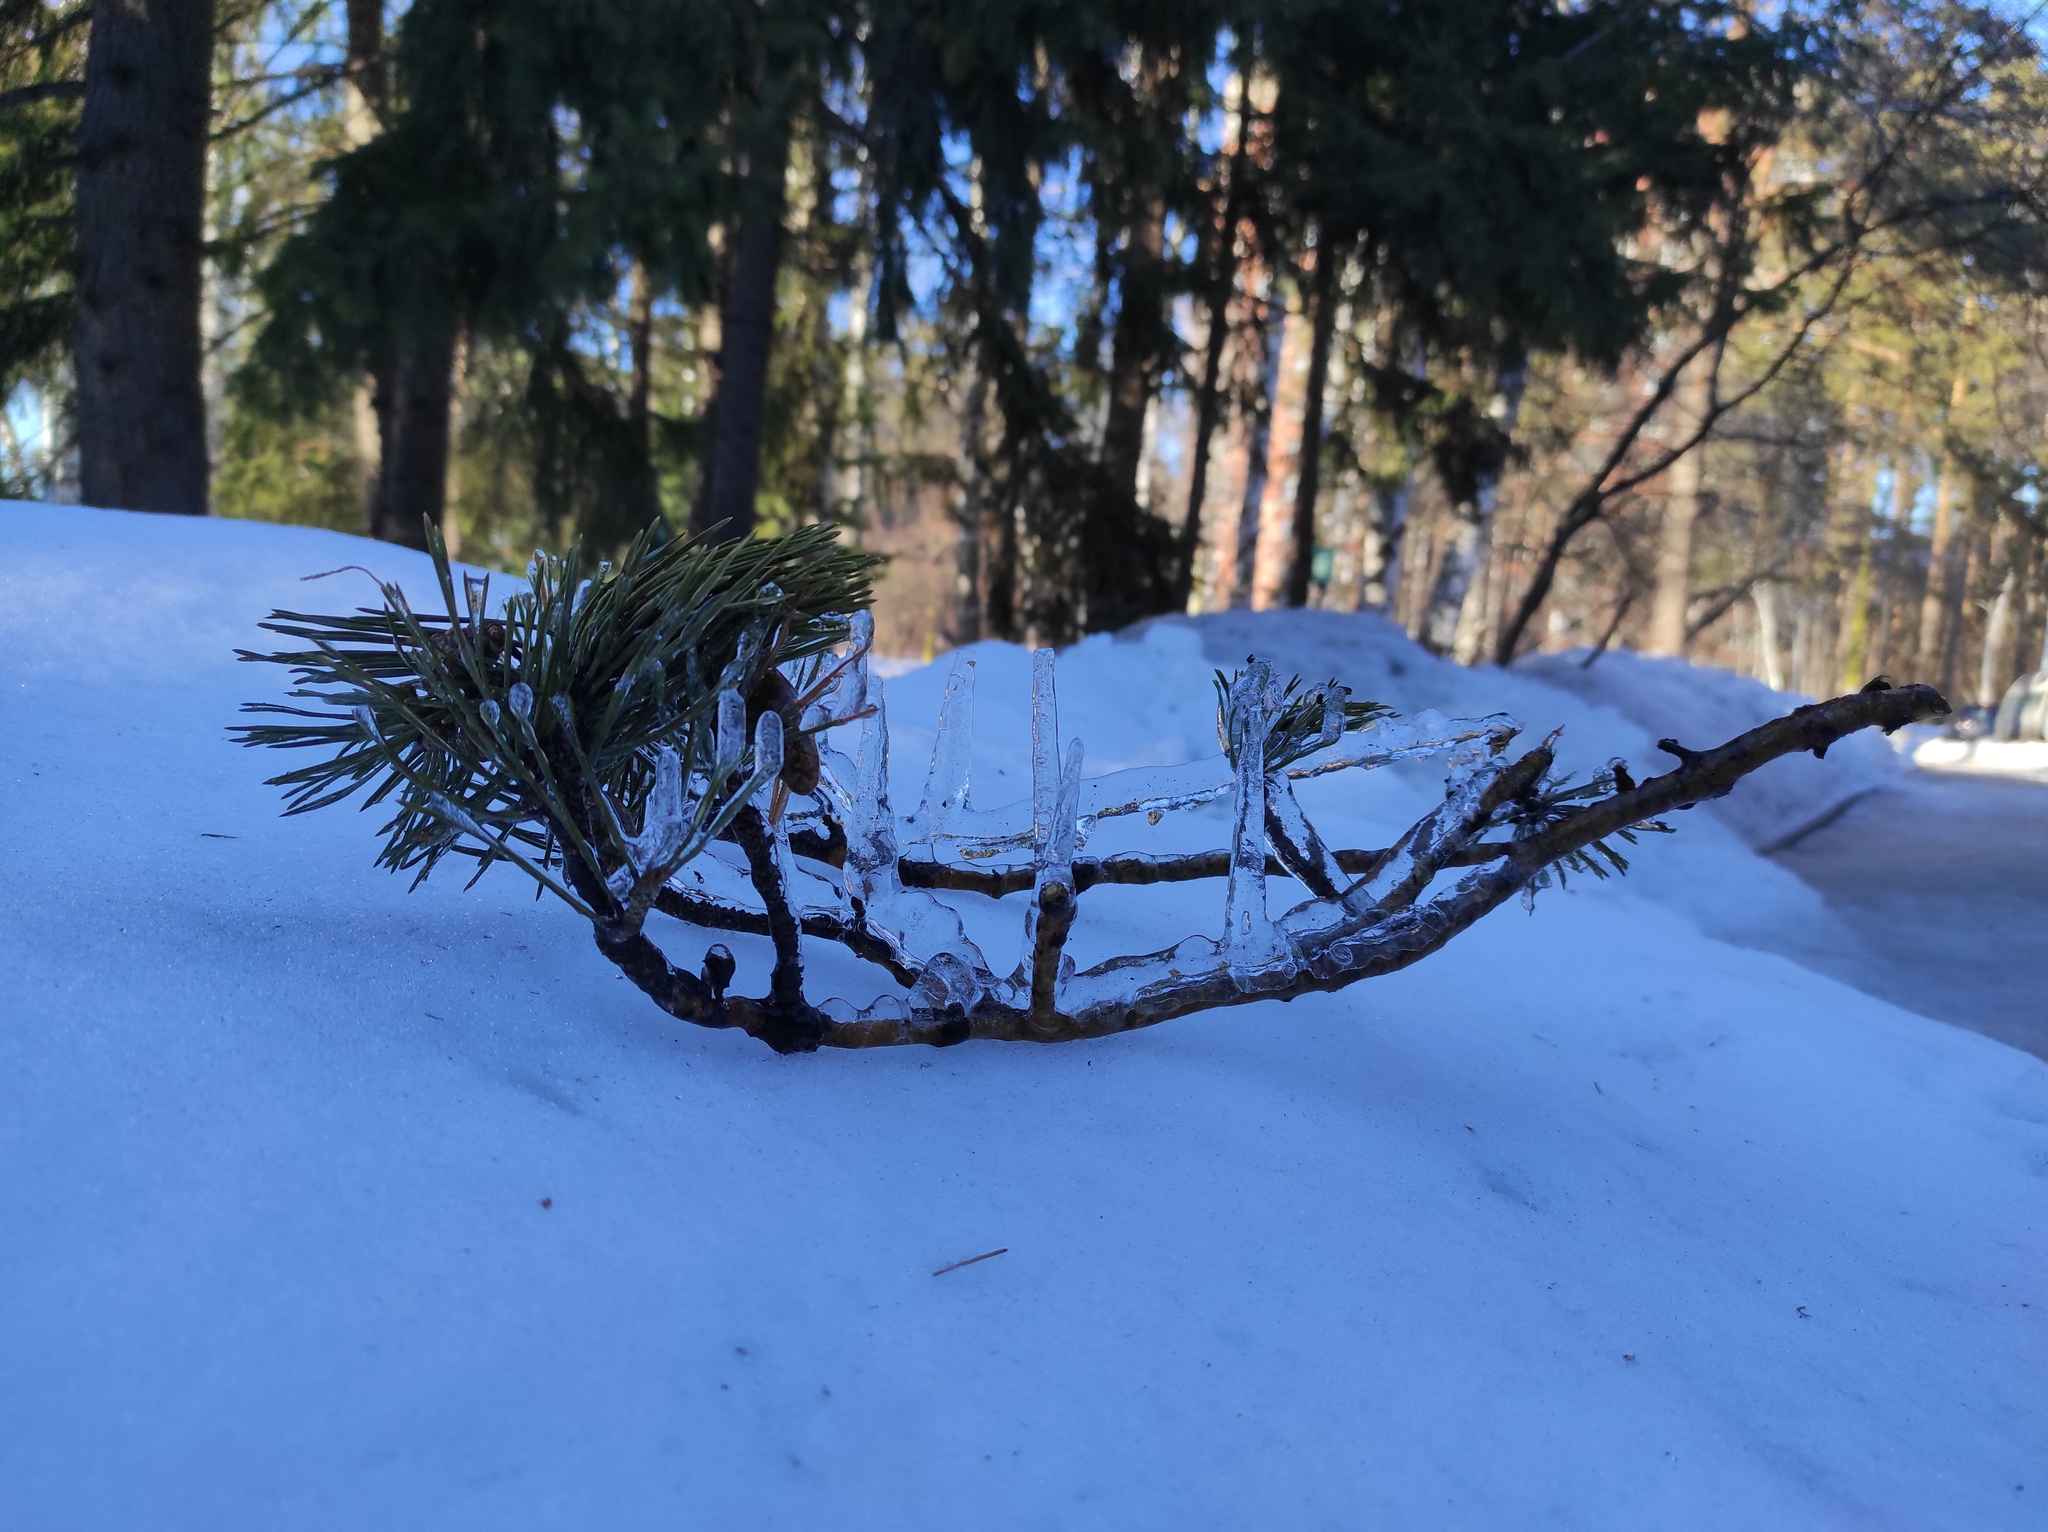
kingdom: Plantae
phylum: Tracheophyta
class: Pinopsida
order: Pinales
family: Pinaceae
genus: Pinus
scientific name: Pinus sylvestris
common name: Scots pine
